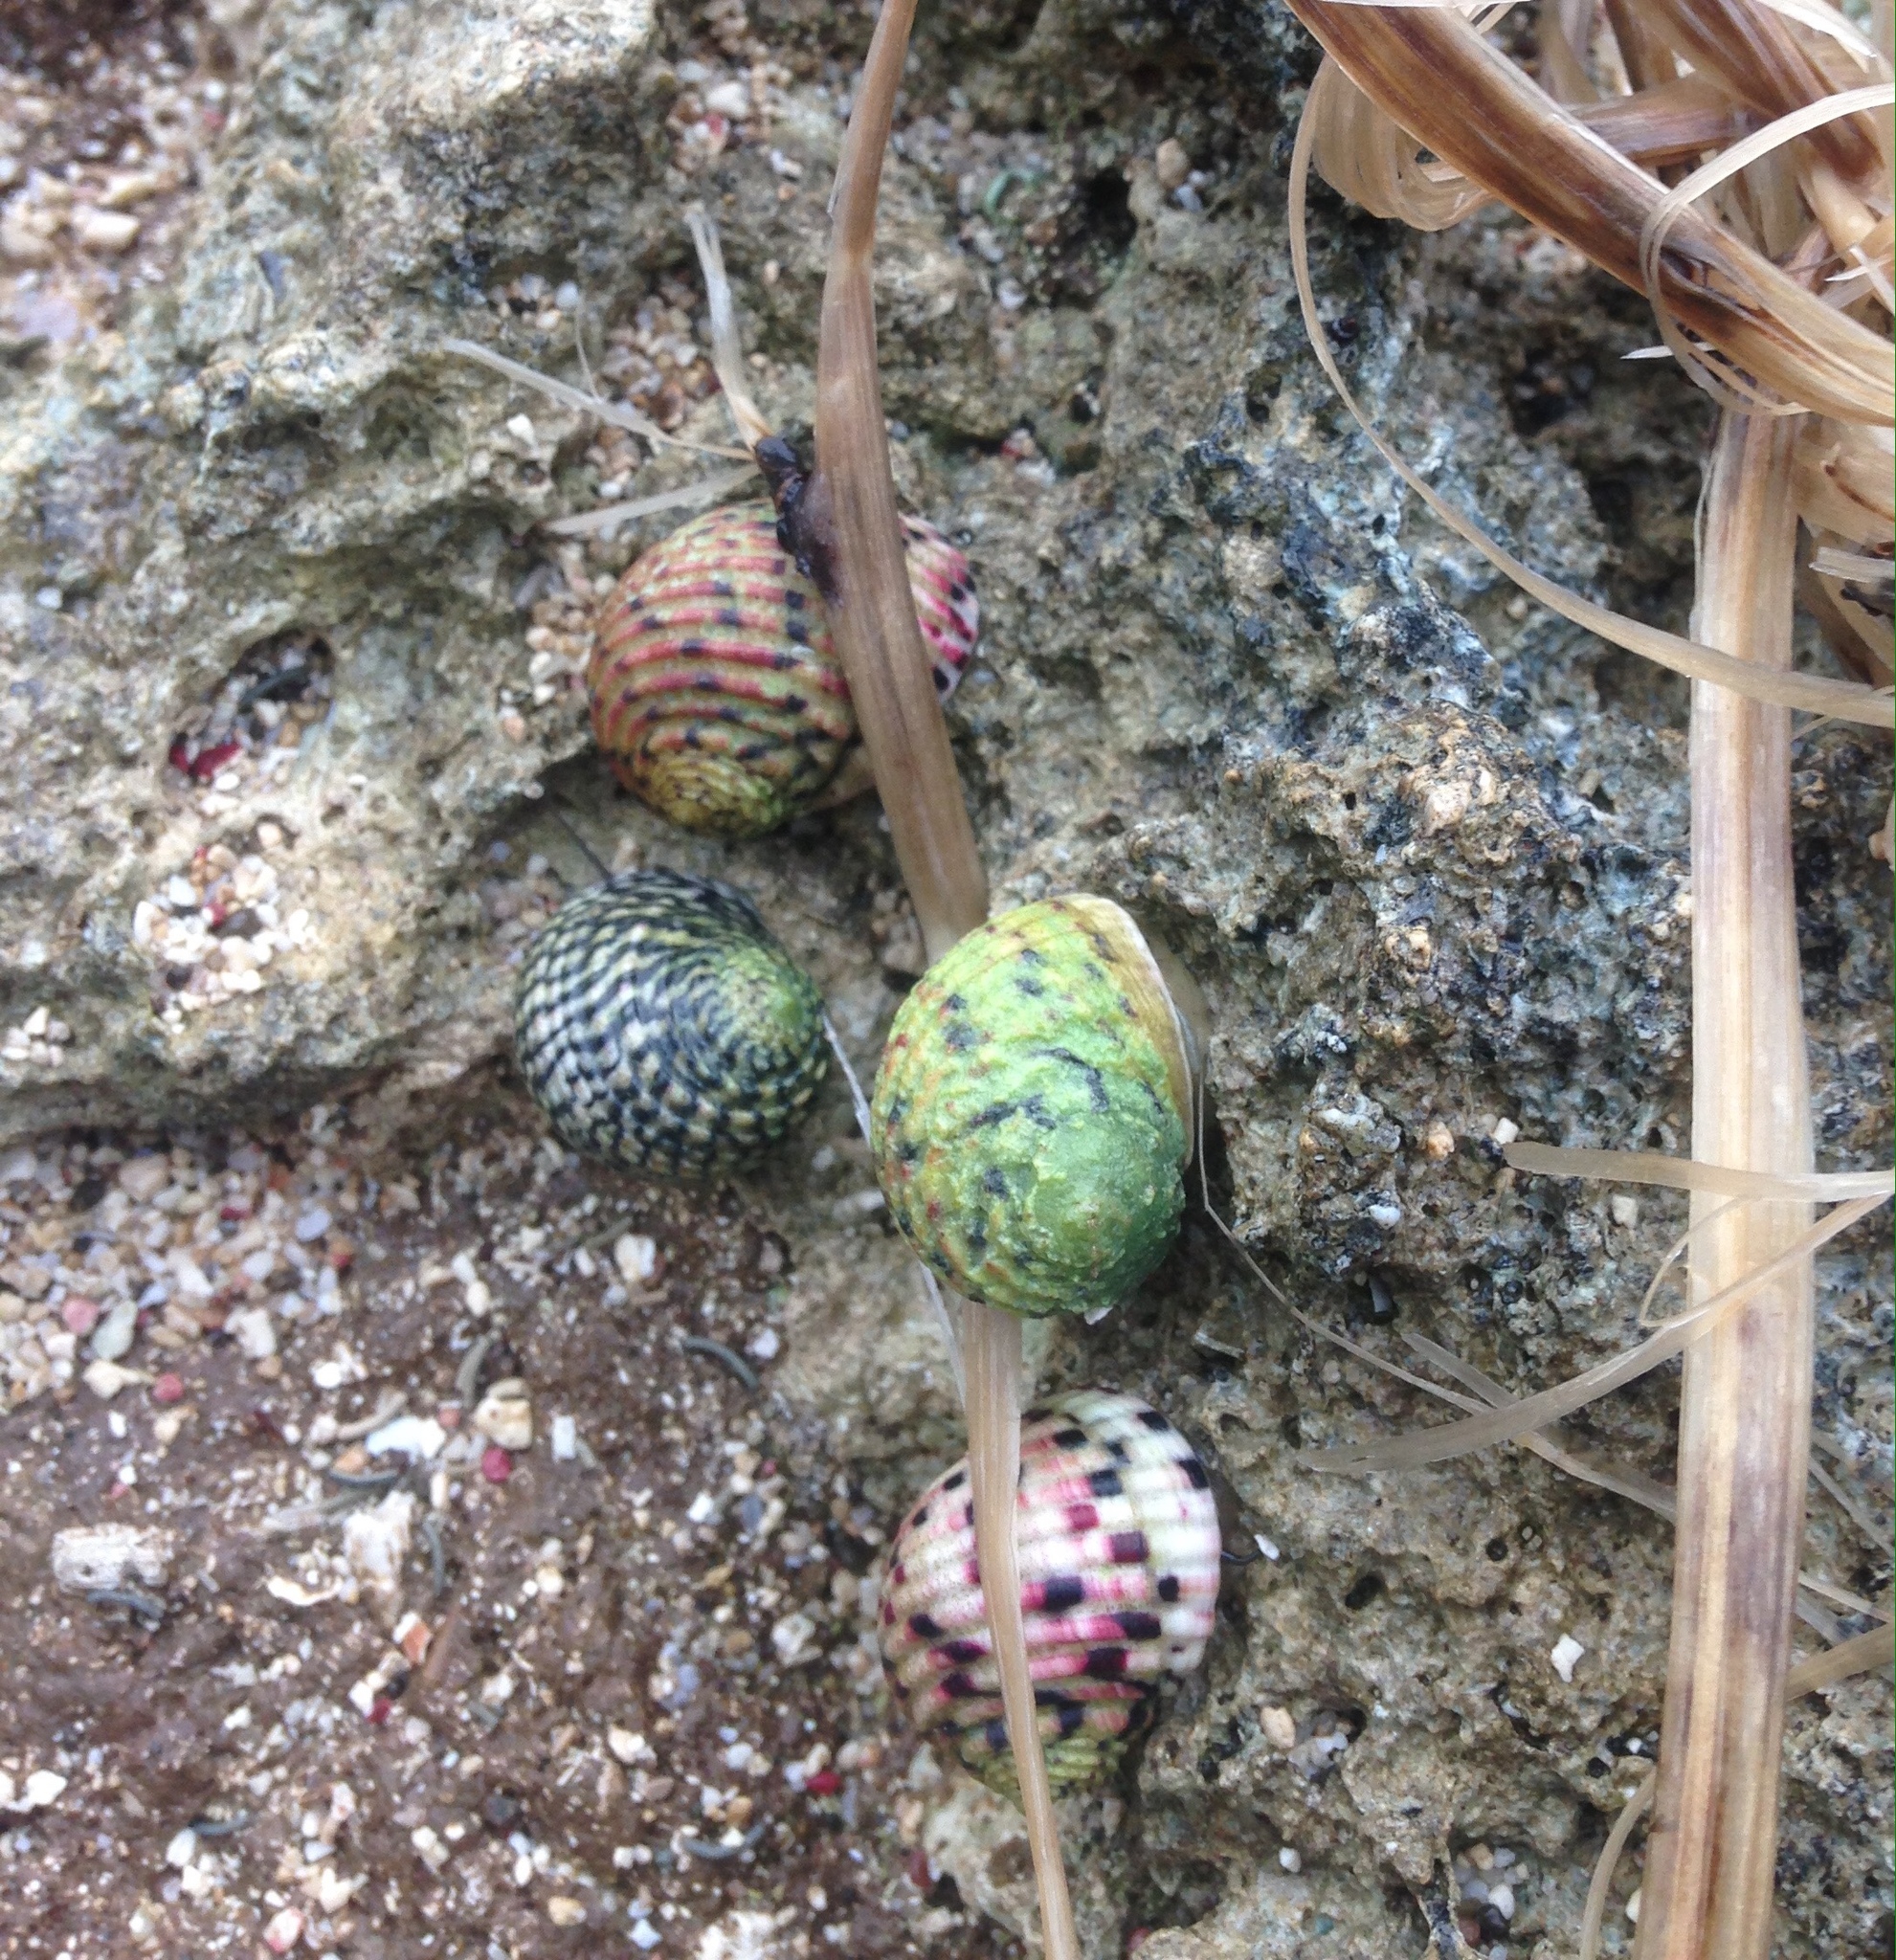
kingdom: Animalia
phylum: Mollusca
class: Gastropoda
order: Cycloneritida
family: Neritidae
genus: Nerita
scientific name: Nerita versicolor
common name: Four-tooth nerite
